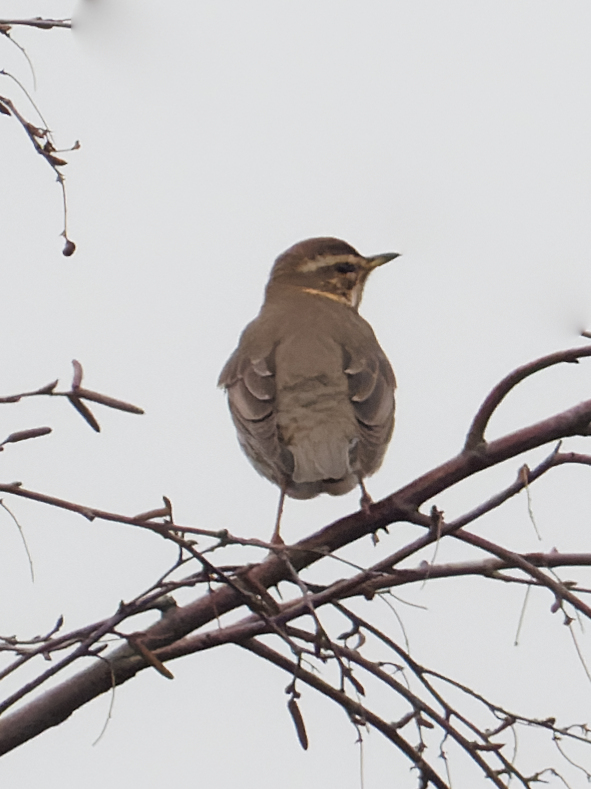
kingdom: Animalia
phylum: Chordata
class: Aves
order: Passeriformes
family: Turdidae
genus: Turdus
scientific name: Turdus iliacus
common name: Redwing
